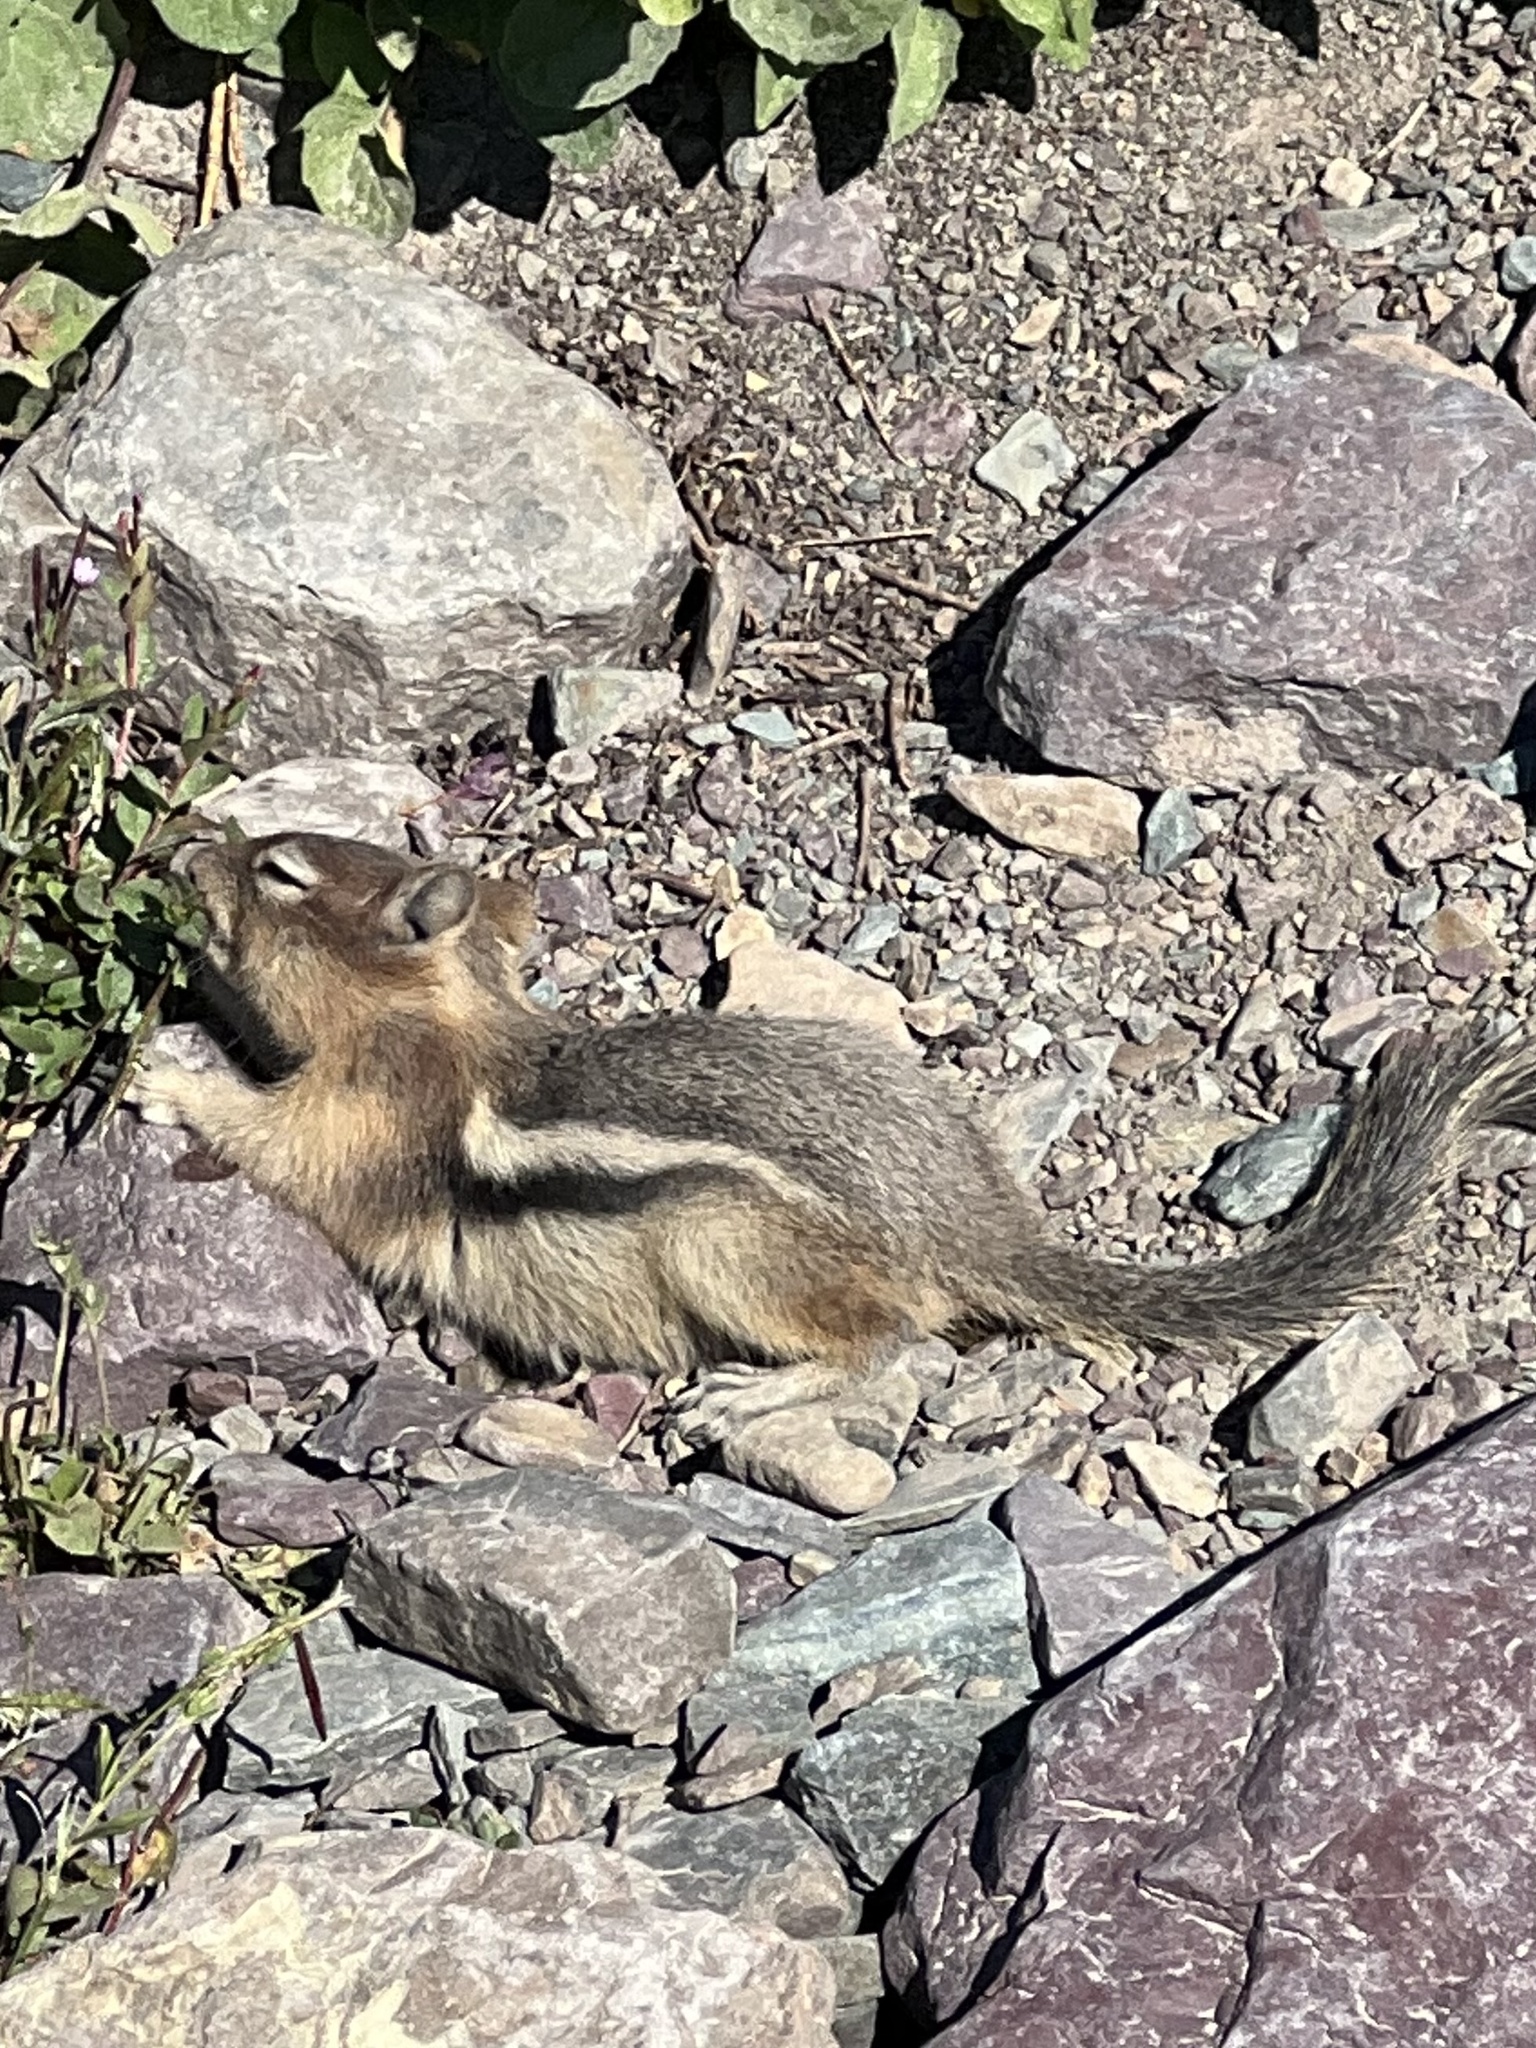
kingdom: Animalia
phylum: Chordata
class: Mammalia
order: Rodentia
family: Sciuridae
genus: Callospermophilus
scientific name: Callospermophilus lateralis
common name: Golden-mantled ground squirrel
